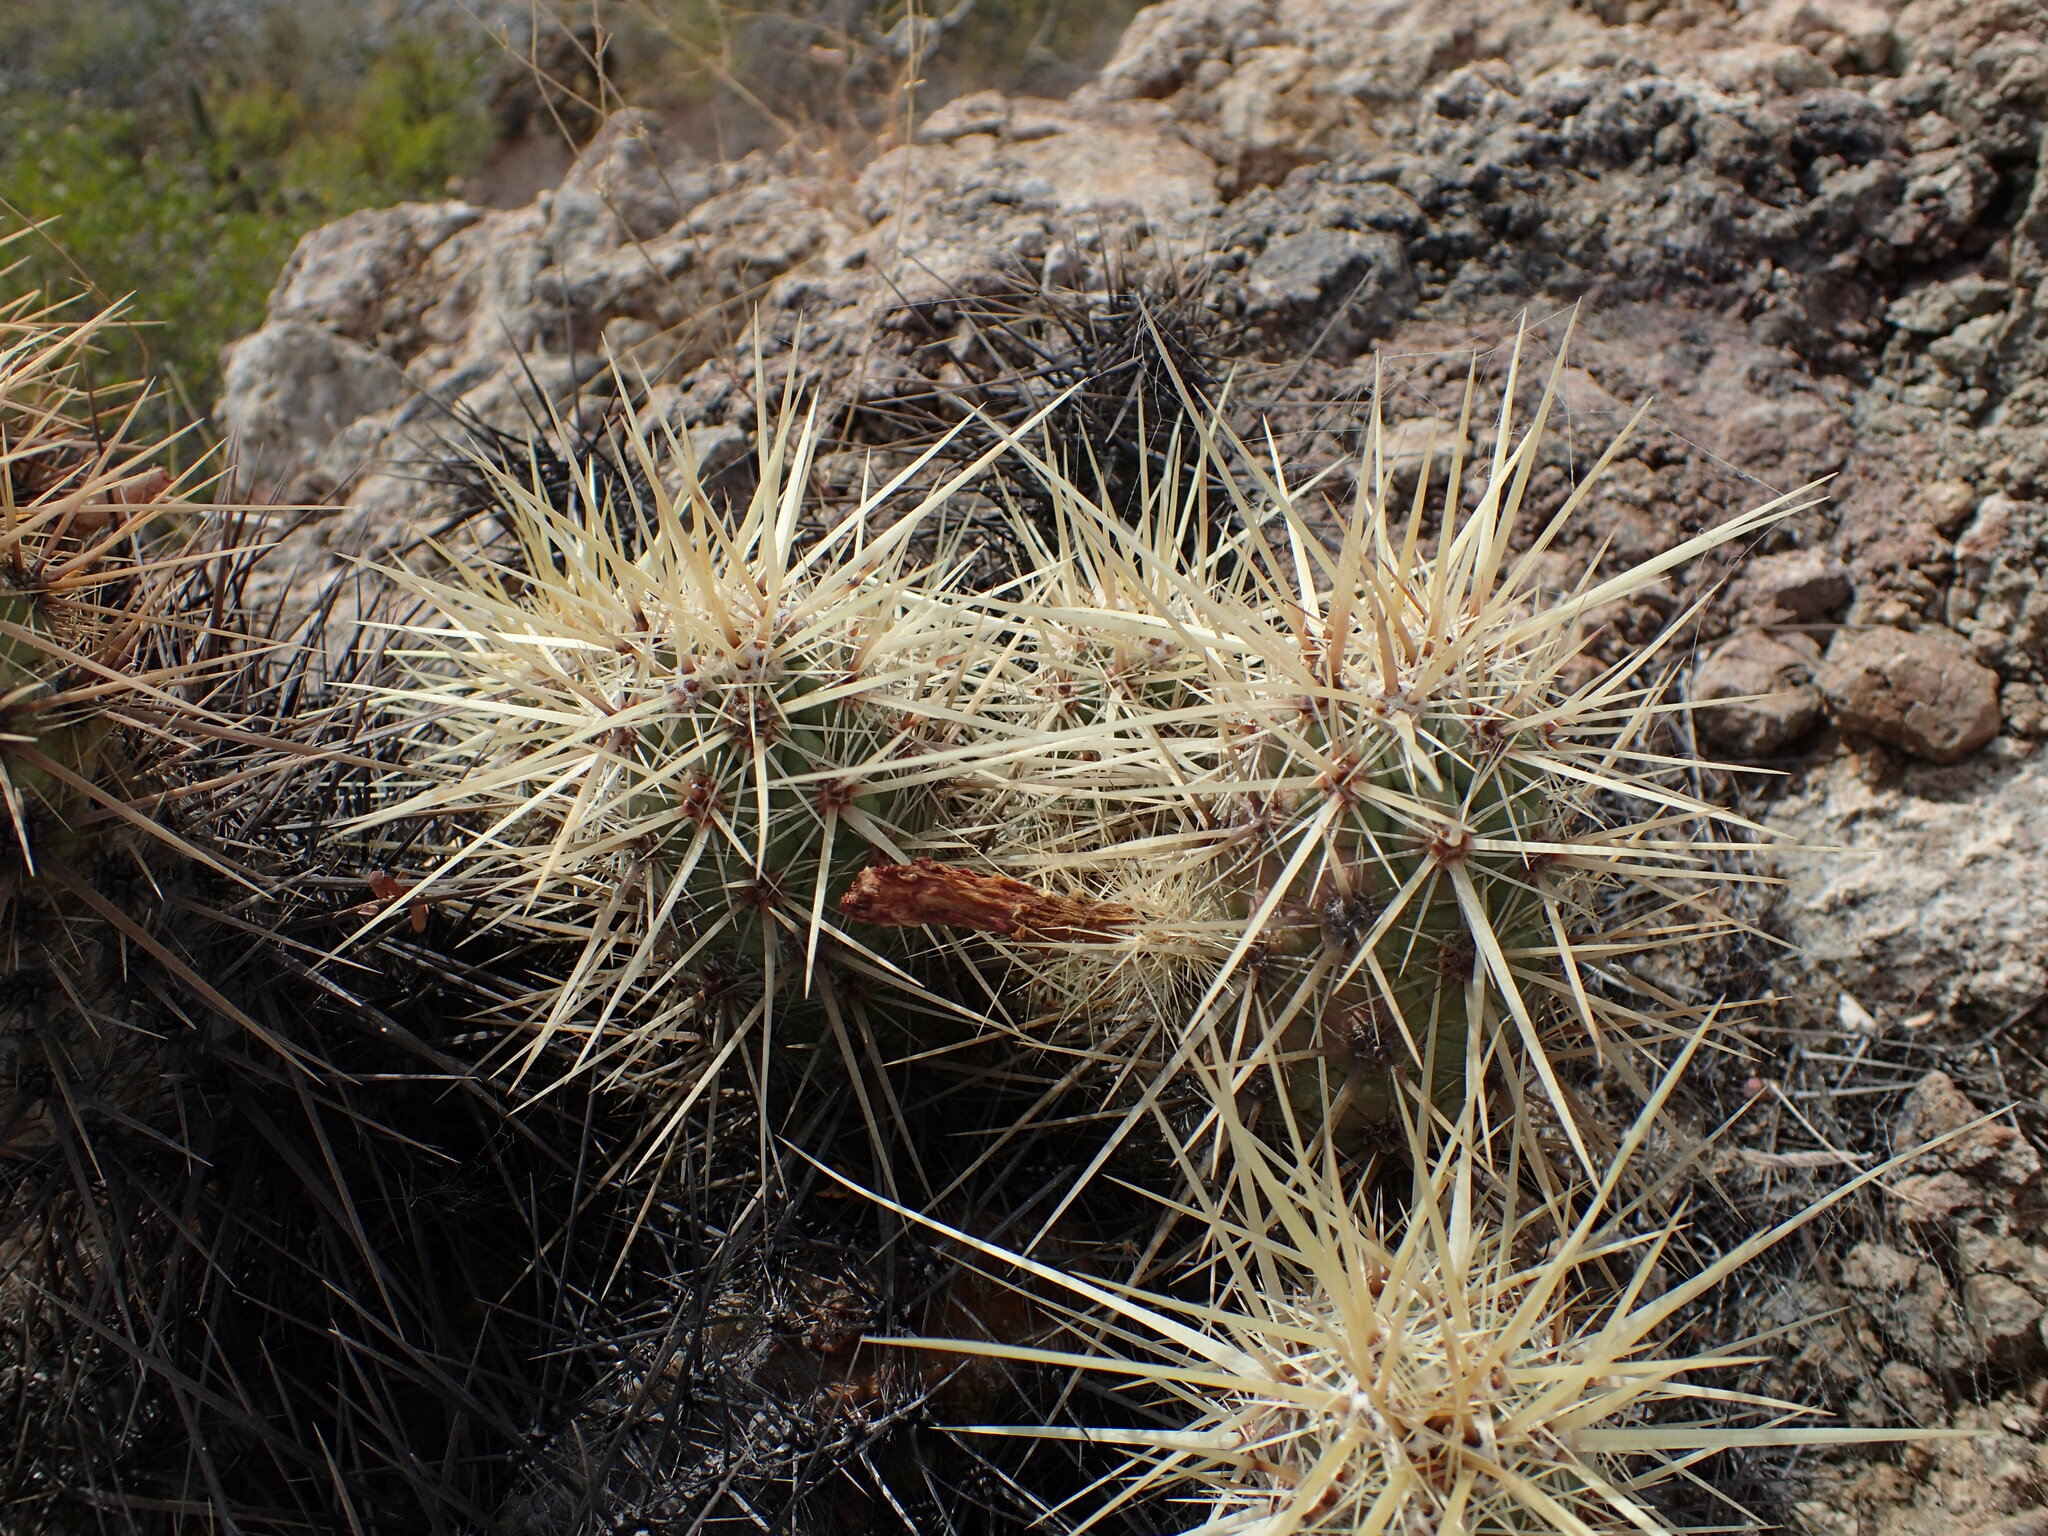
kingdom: Plantae
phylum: Tracheophyta
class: Magnoliopsida
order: Caryophyllales
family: Cactaceae
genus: Echinocereus
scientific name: Echinocereus brandegeei
